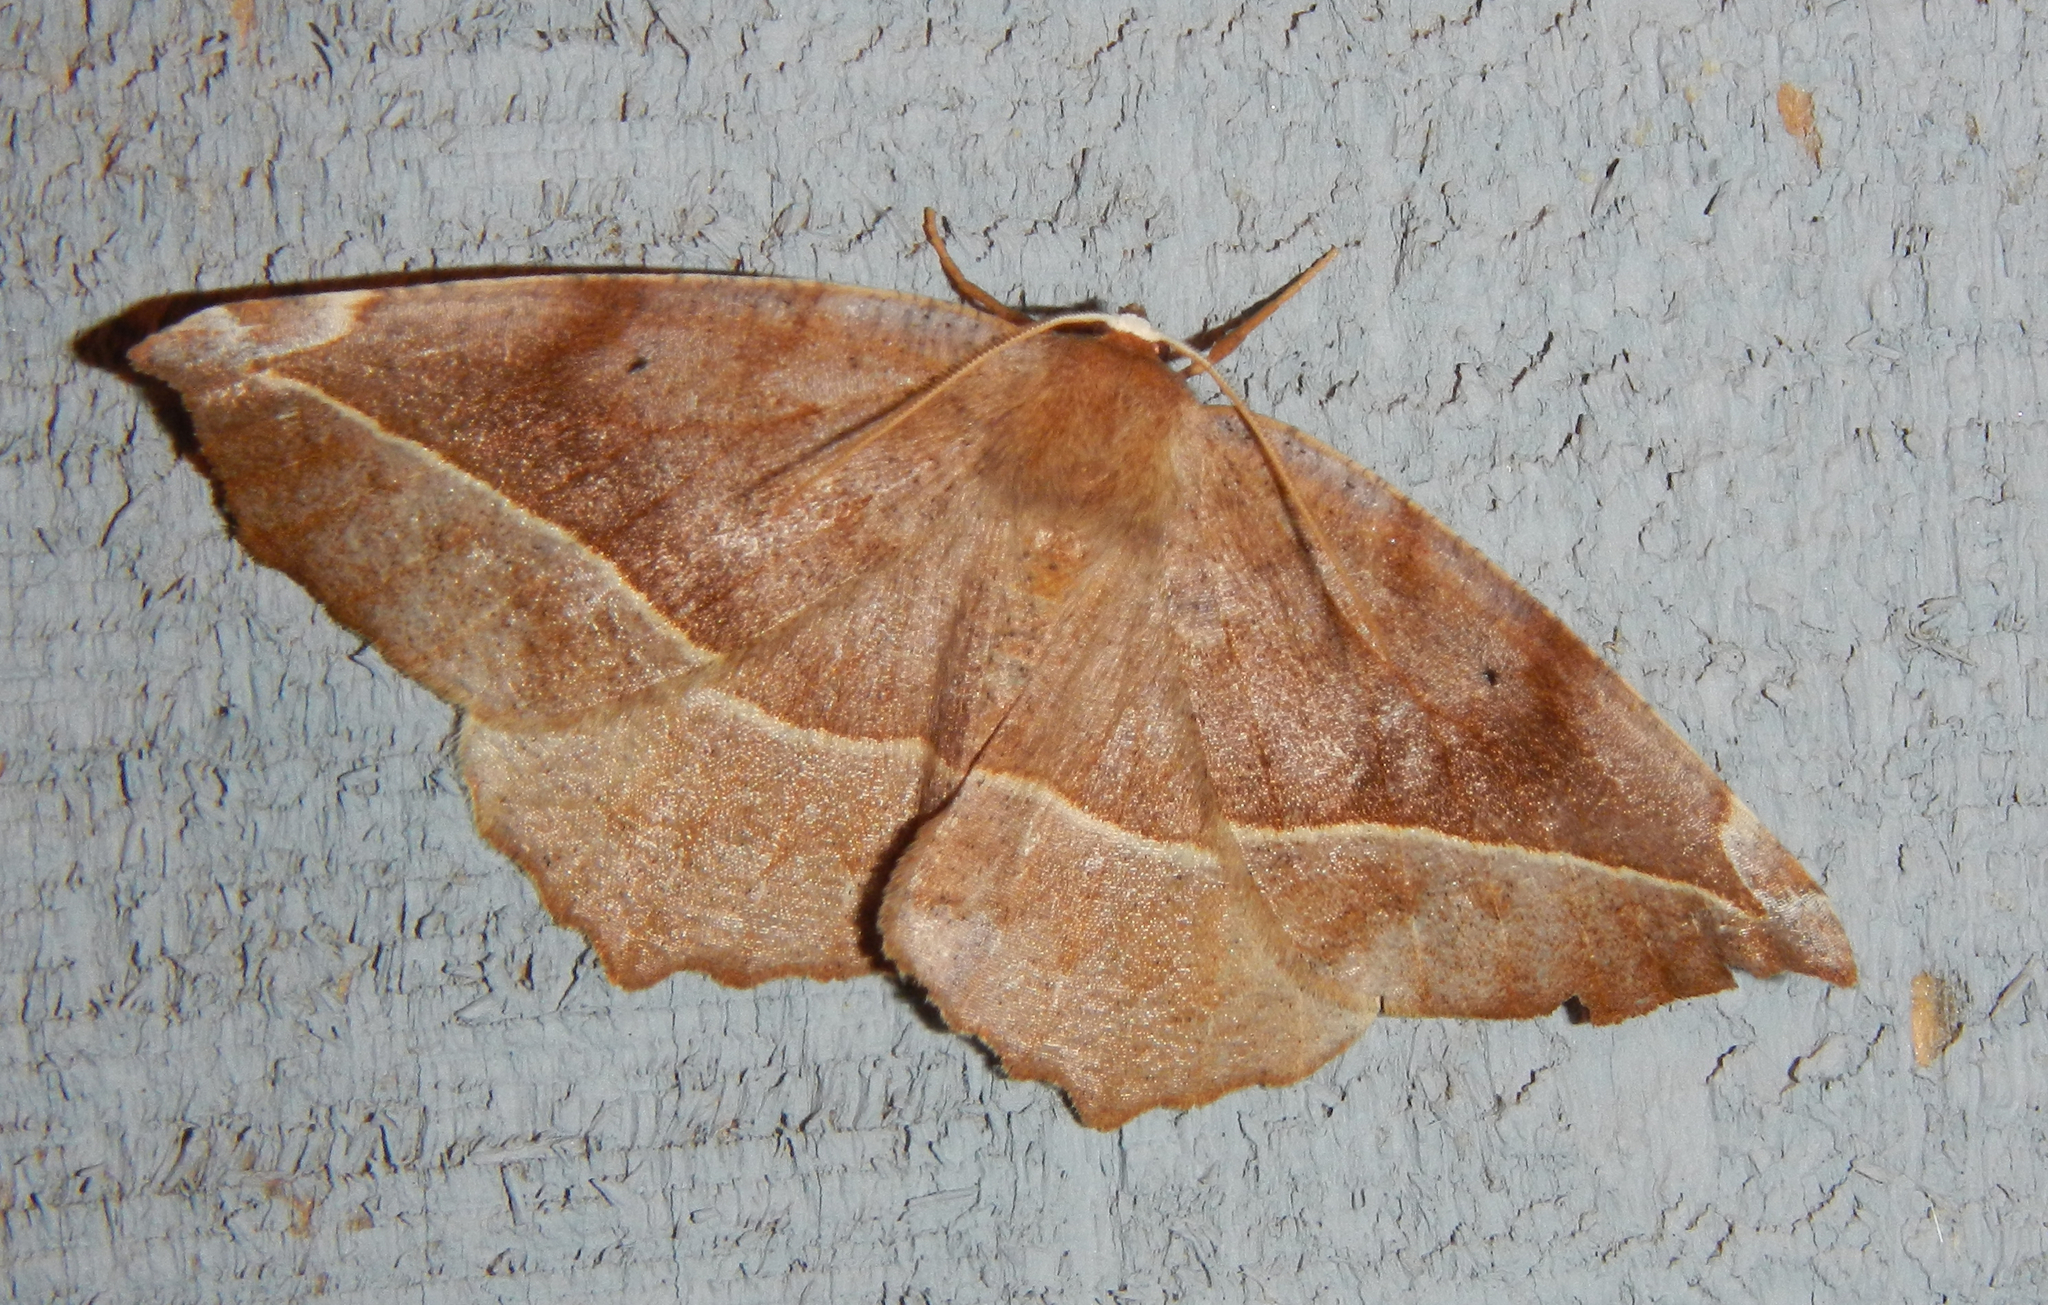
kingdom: Animalia
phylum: Arthropoda
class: Insecta
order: Lepidoptera
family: Geometridae
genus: Eutrapela
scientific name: Eutrapela clemataria
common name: Curved-toothed geometer
